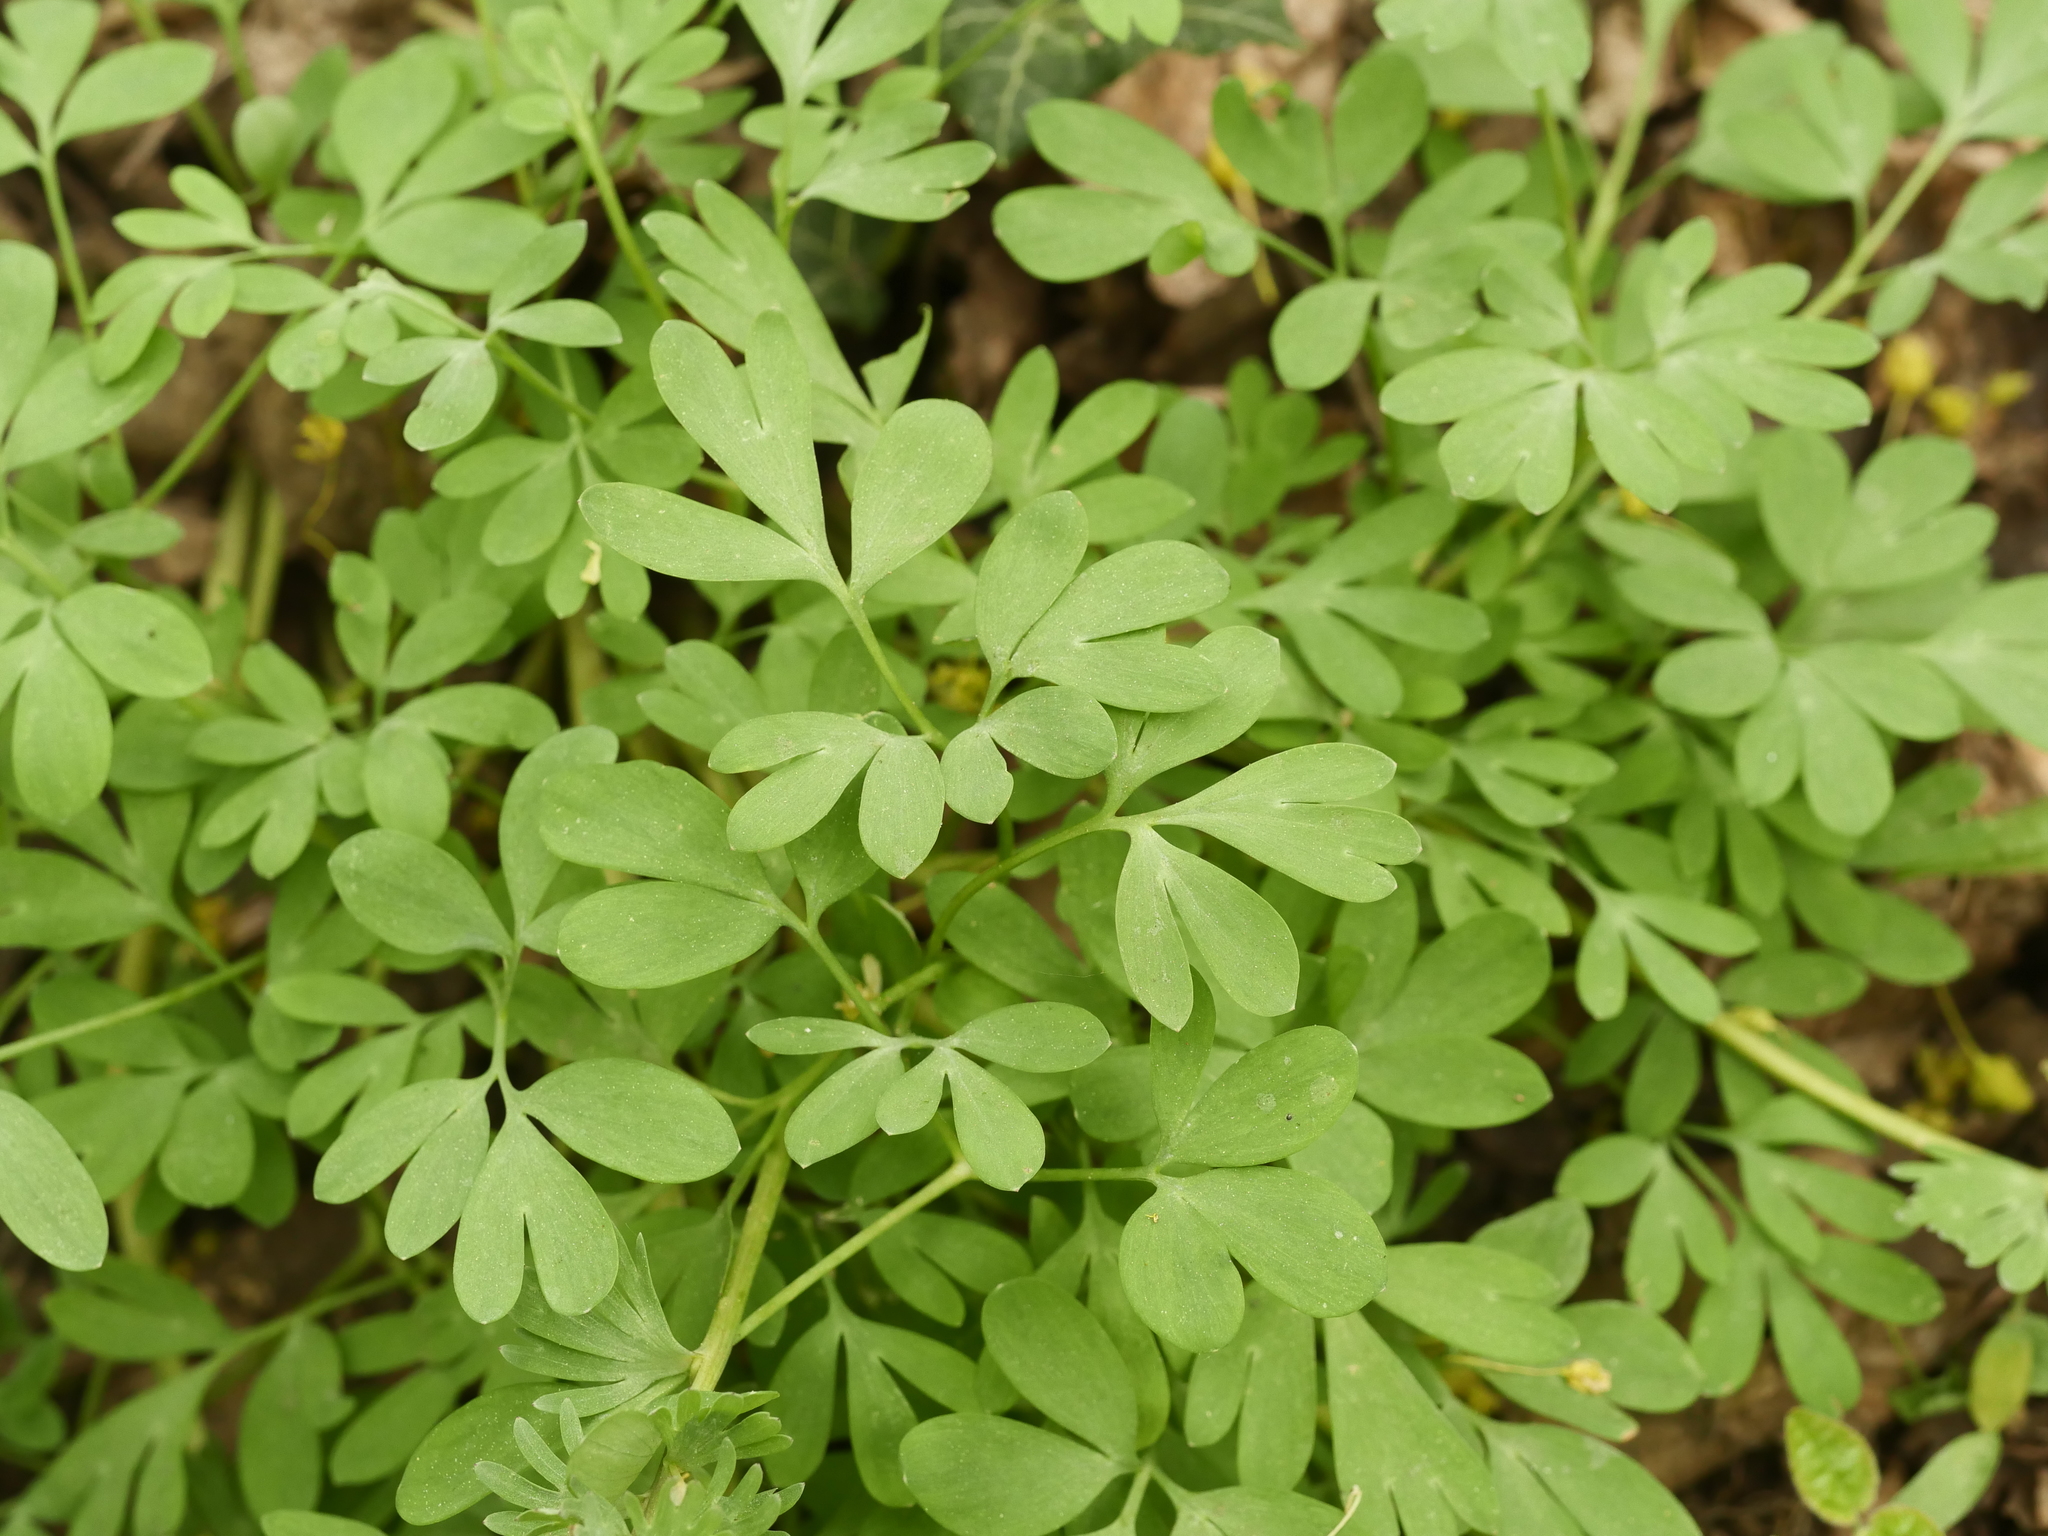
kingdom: Plantae
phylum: Tracheophyta
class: Magnoliopsida
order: Ranunculales
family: Papaveraceae
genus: Corydalis
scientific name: Corydalis solida
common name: Bird-in-a-bush
